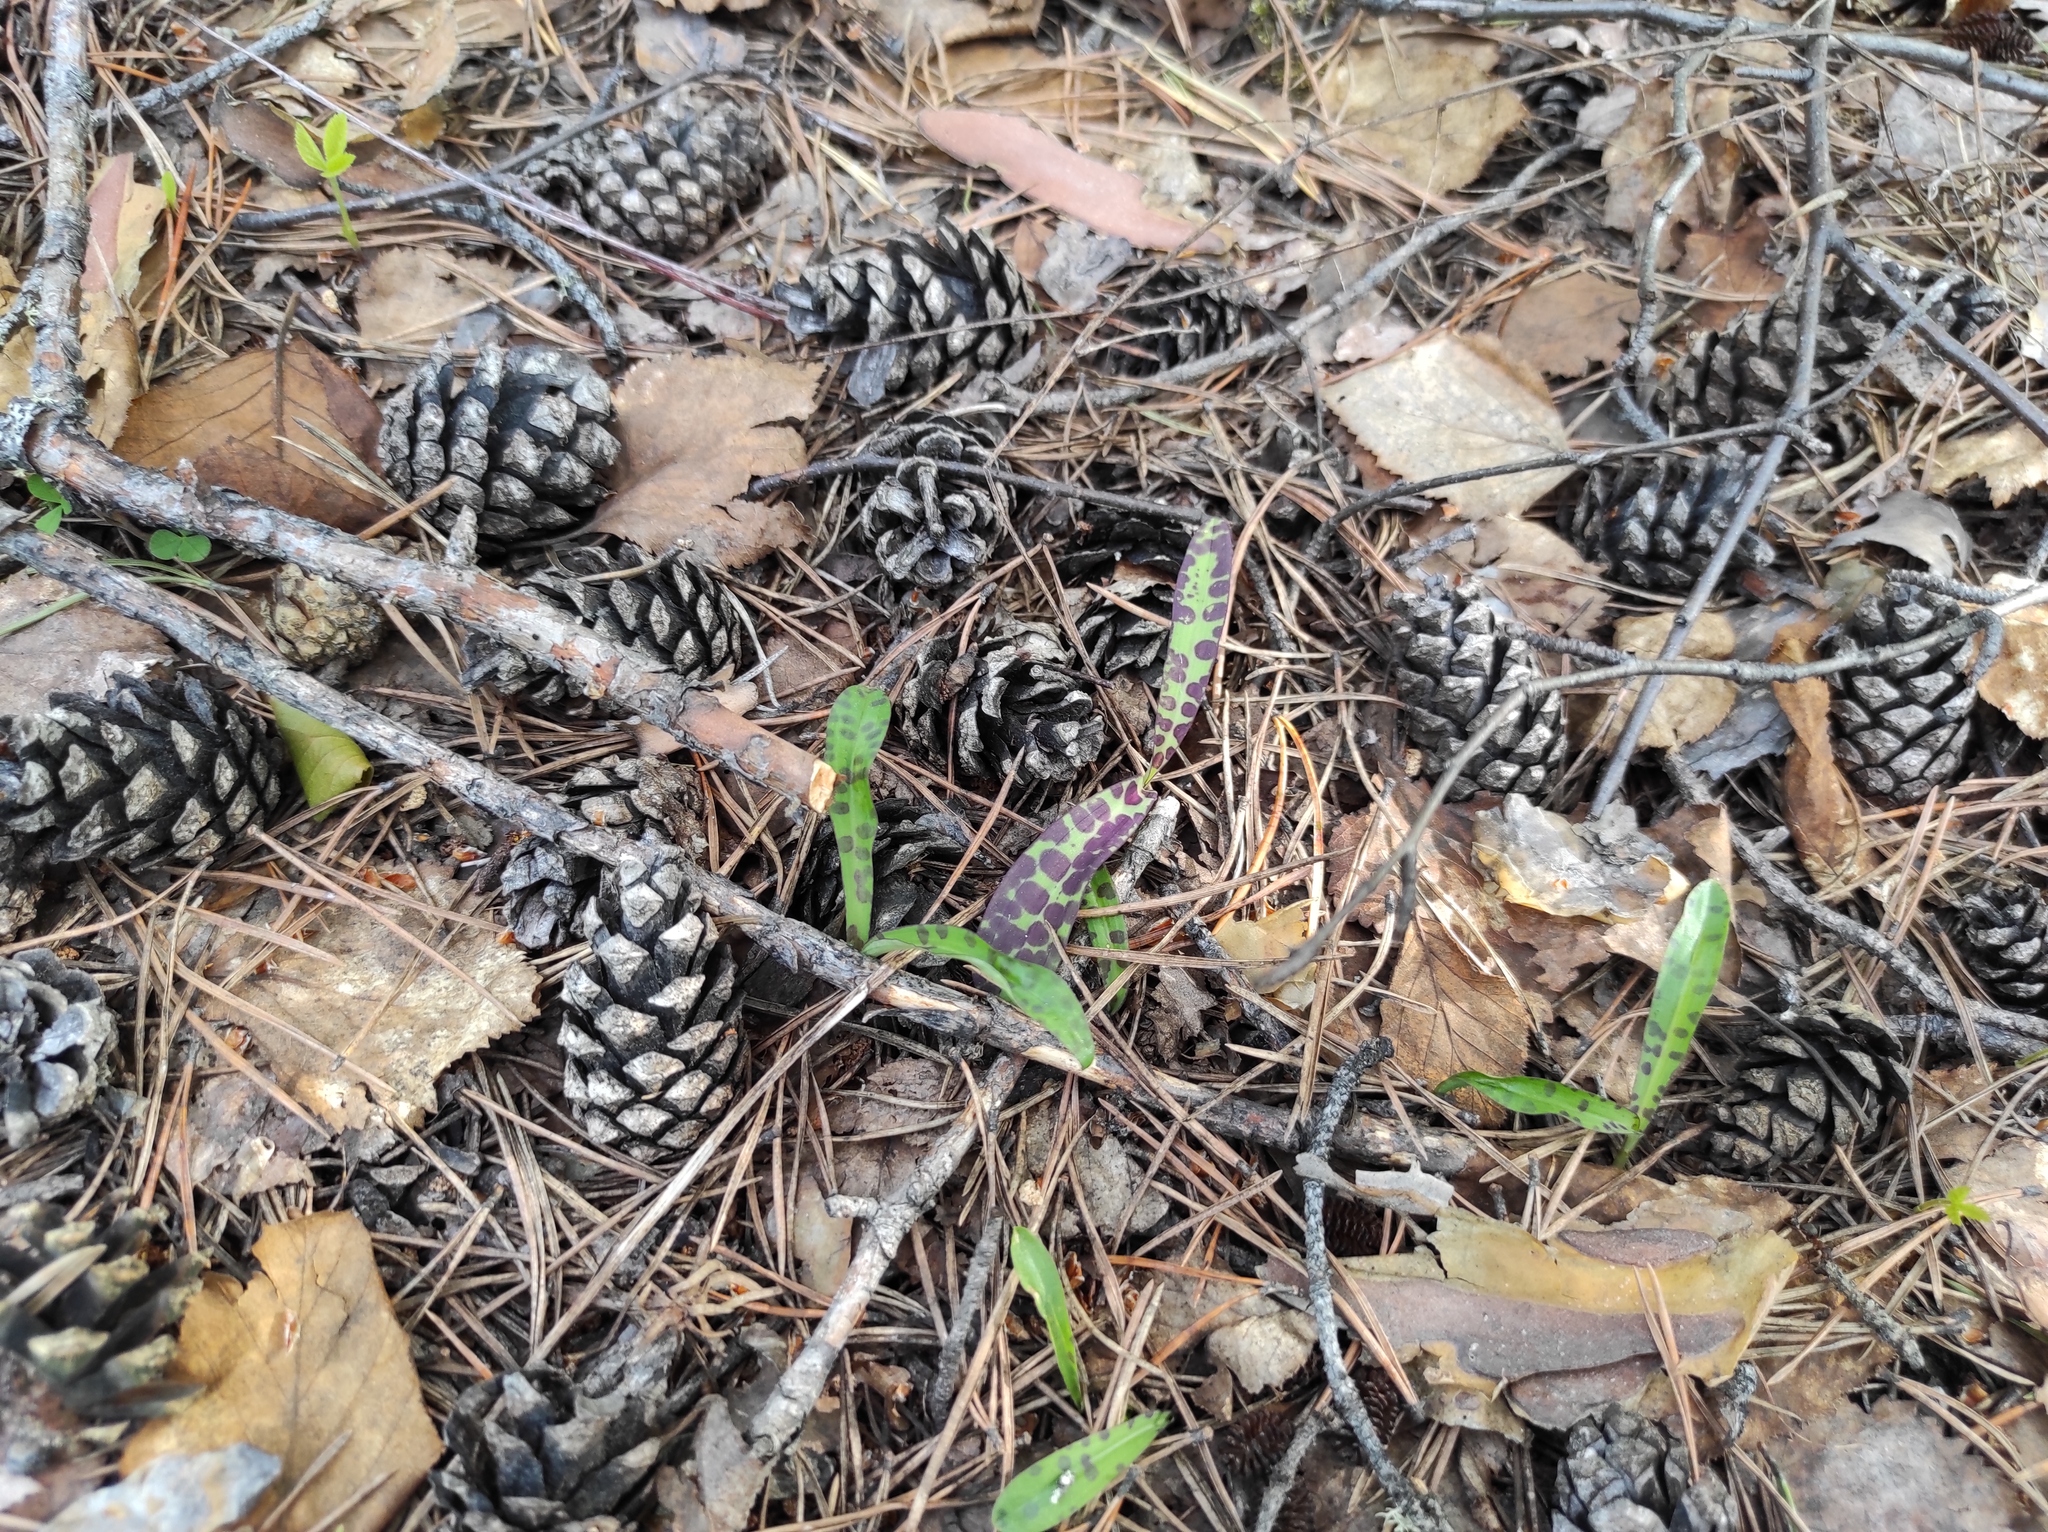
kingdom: Plantae
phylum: Tracheophyta
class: Pinopsida
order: Pinales
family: Pinaceae
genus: Pinus
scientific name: Pinus sylvestris
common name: Scots pine
